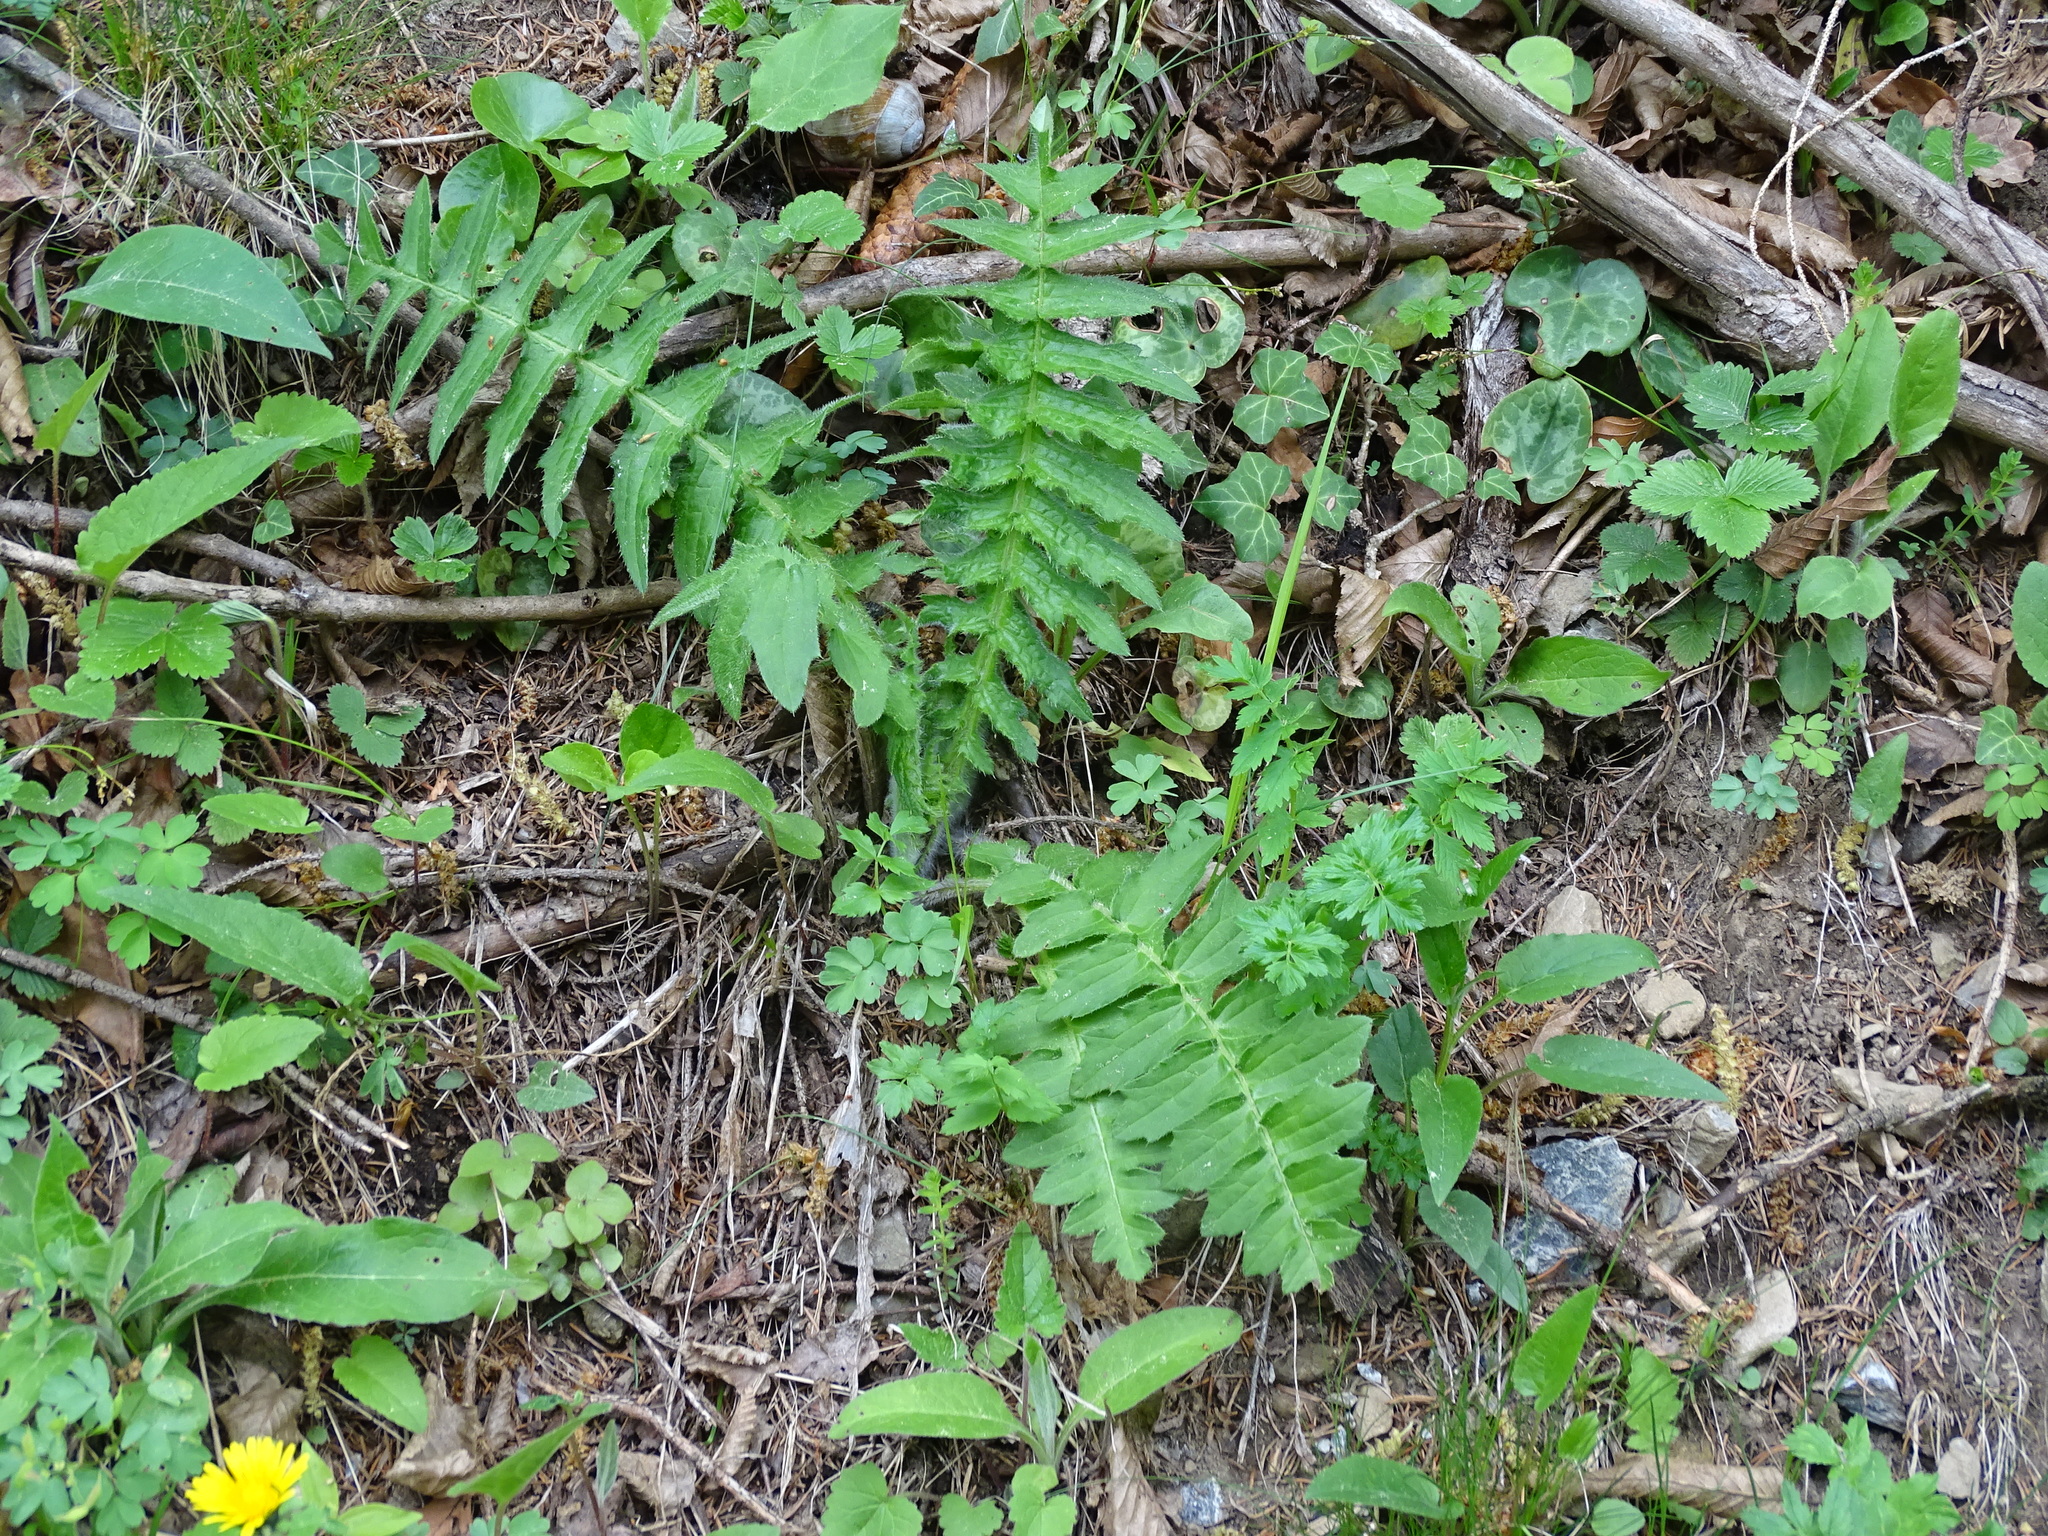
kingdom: Plantae
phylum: Tracheophyta
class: Magnoliopsida
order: Asterales
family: Asteraceae
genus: Cirsium
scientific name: Cirsium erisithales
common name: Yellow thistle
